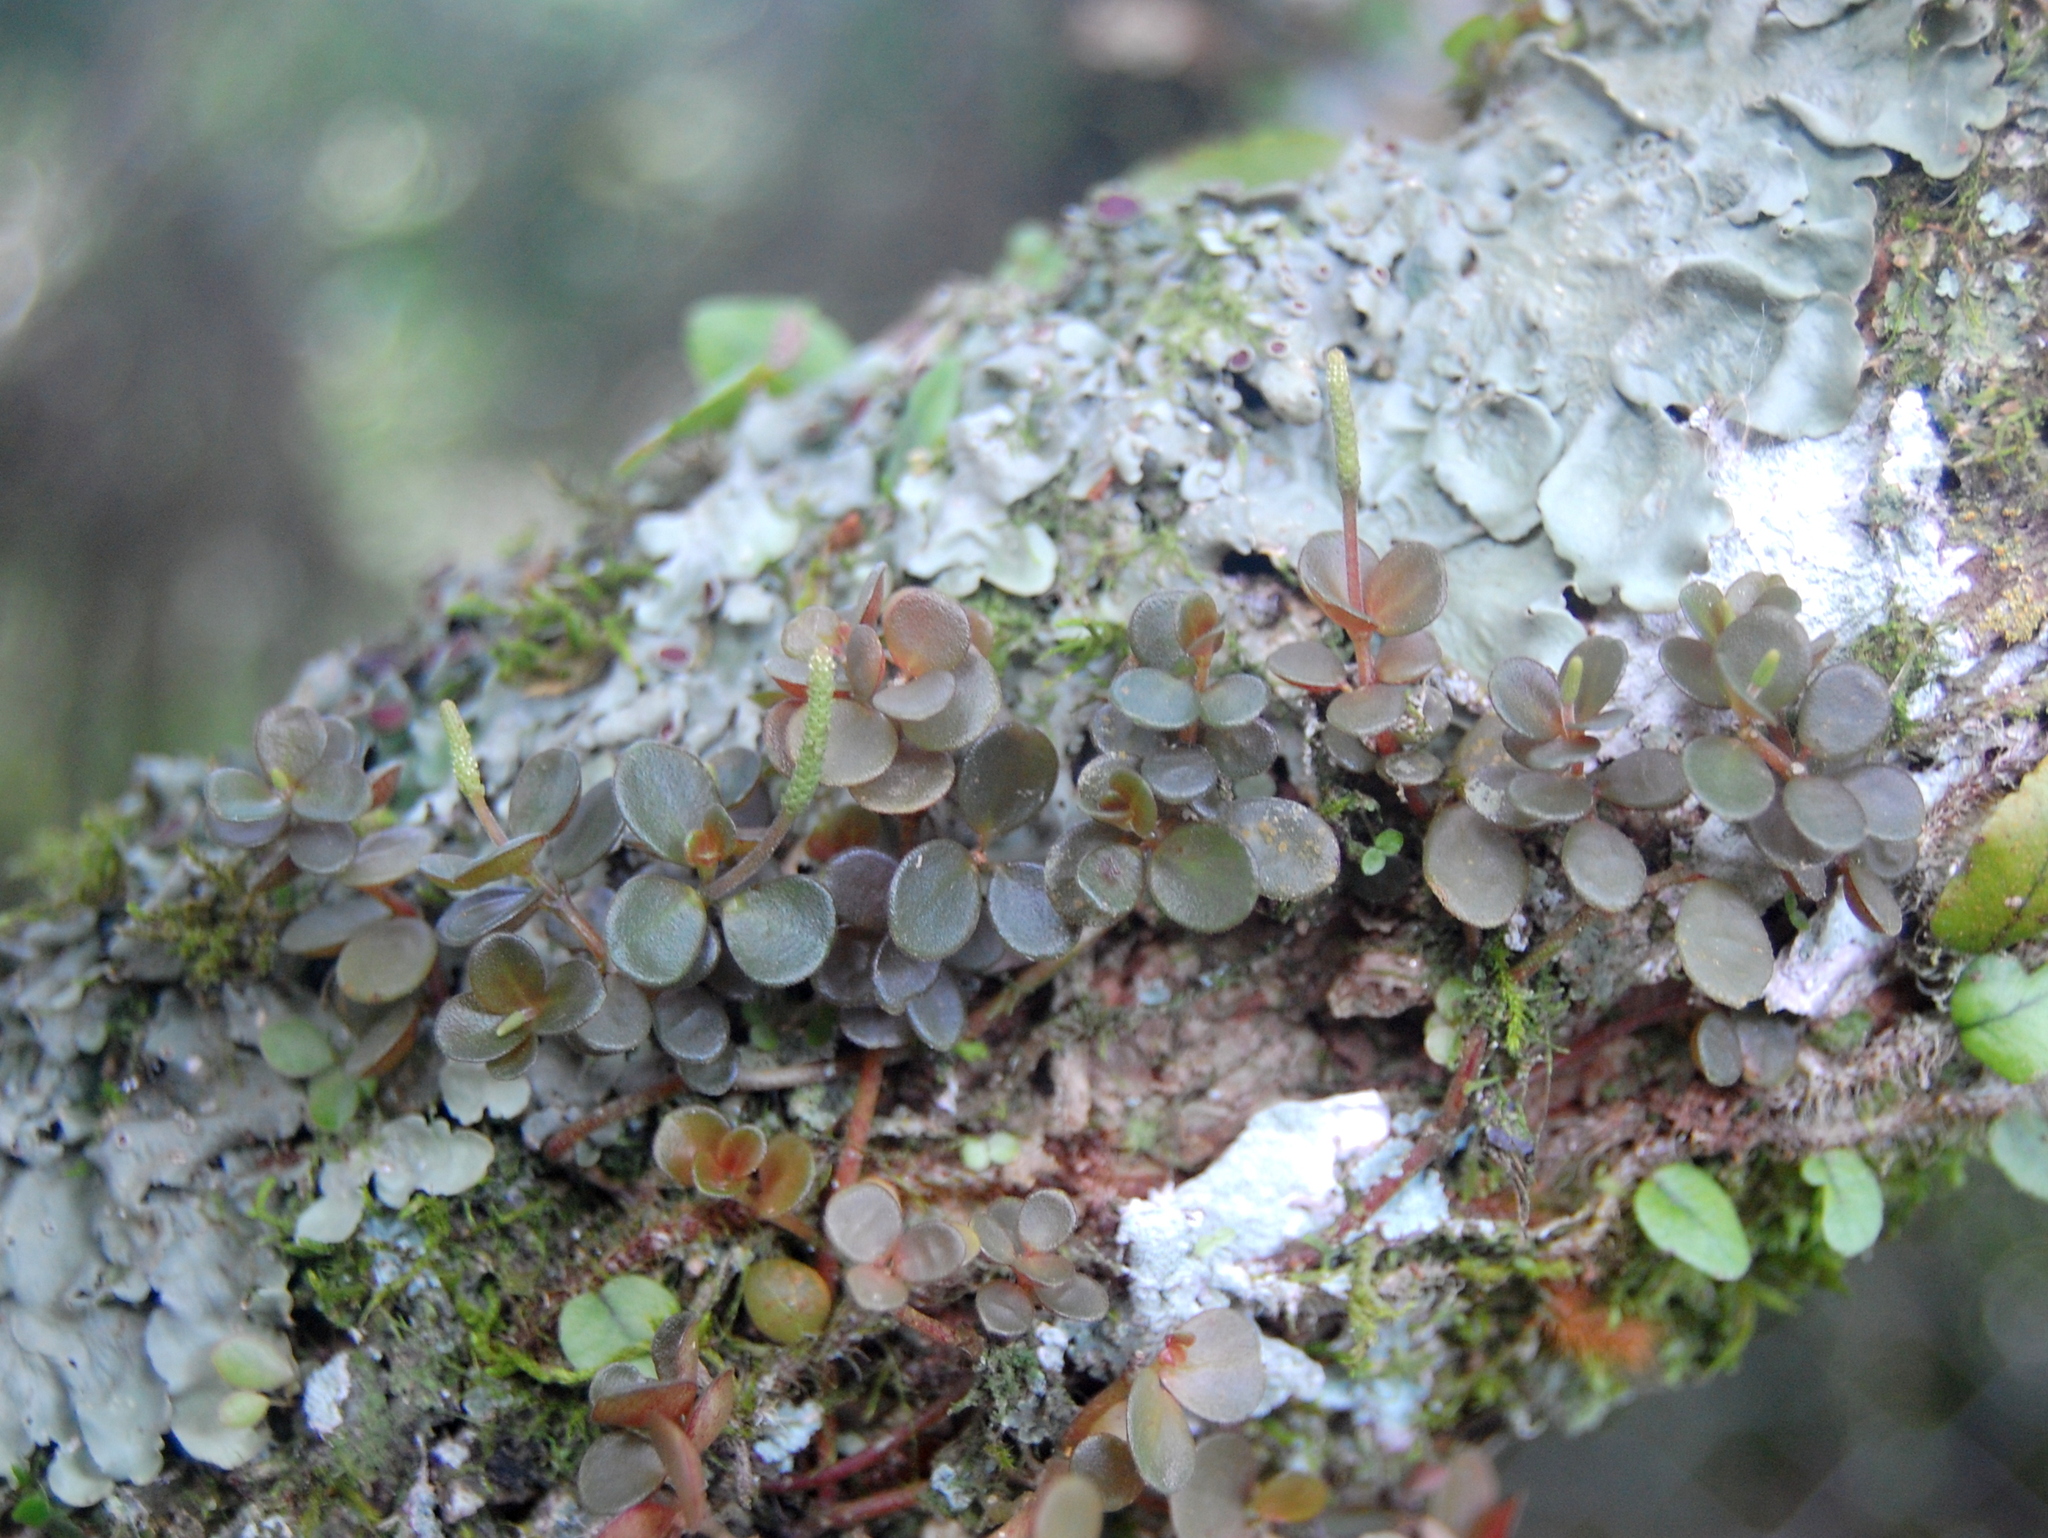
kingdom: Plantae
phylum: Tracheophyta
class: Magnoliopsida
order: Piperales
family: Piperaceae
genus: Peperomia
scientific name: Peperomia catharinae
